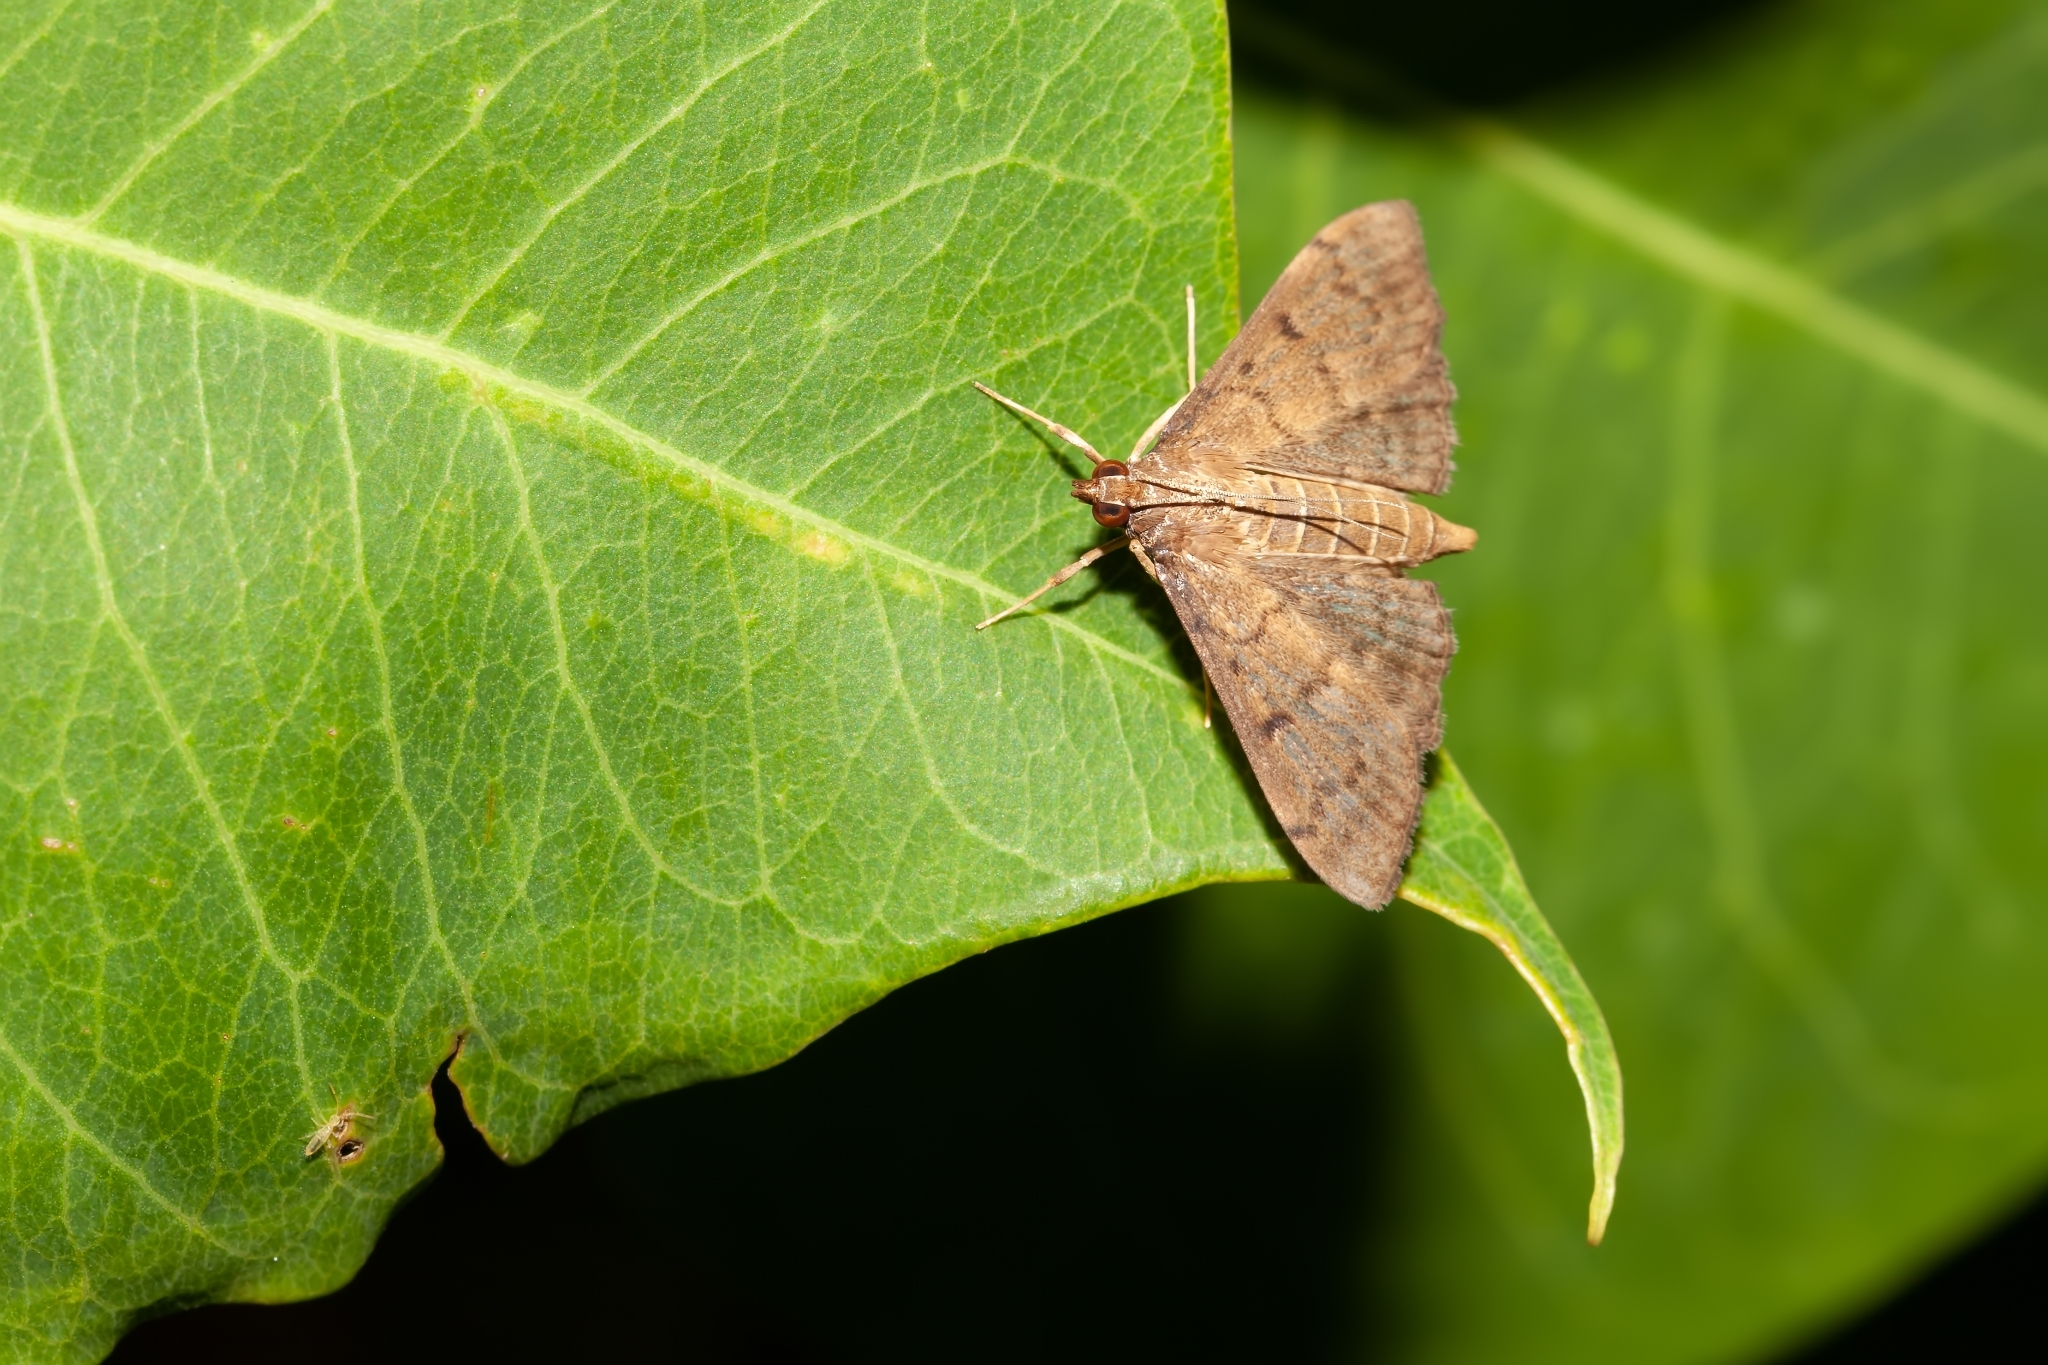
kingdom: Animalia
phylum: Arthropoda
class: Insecta
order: Lepidoptera
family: Crambidae
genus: Herpetogramma
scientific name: Herpetogramma phaeopteralis
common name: Dusky herpetogramma moth
